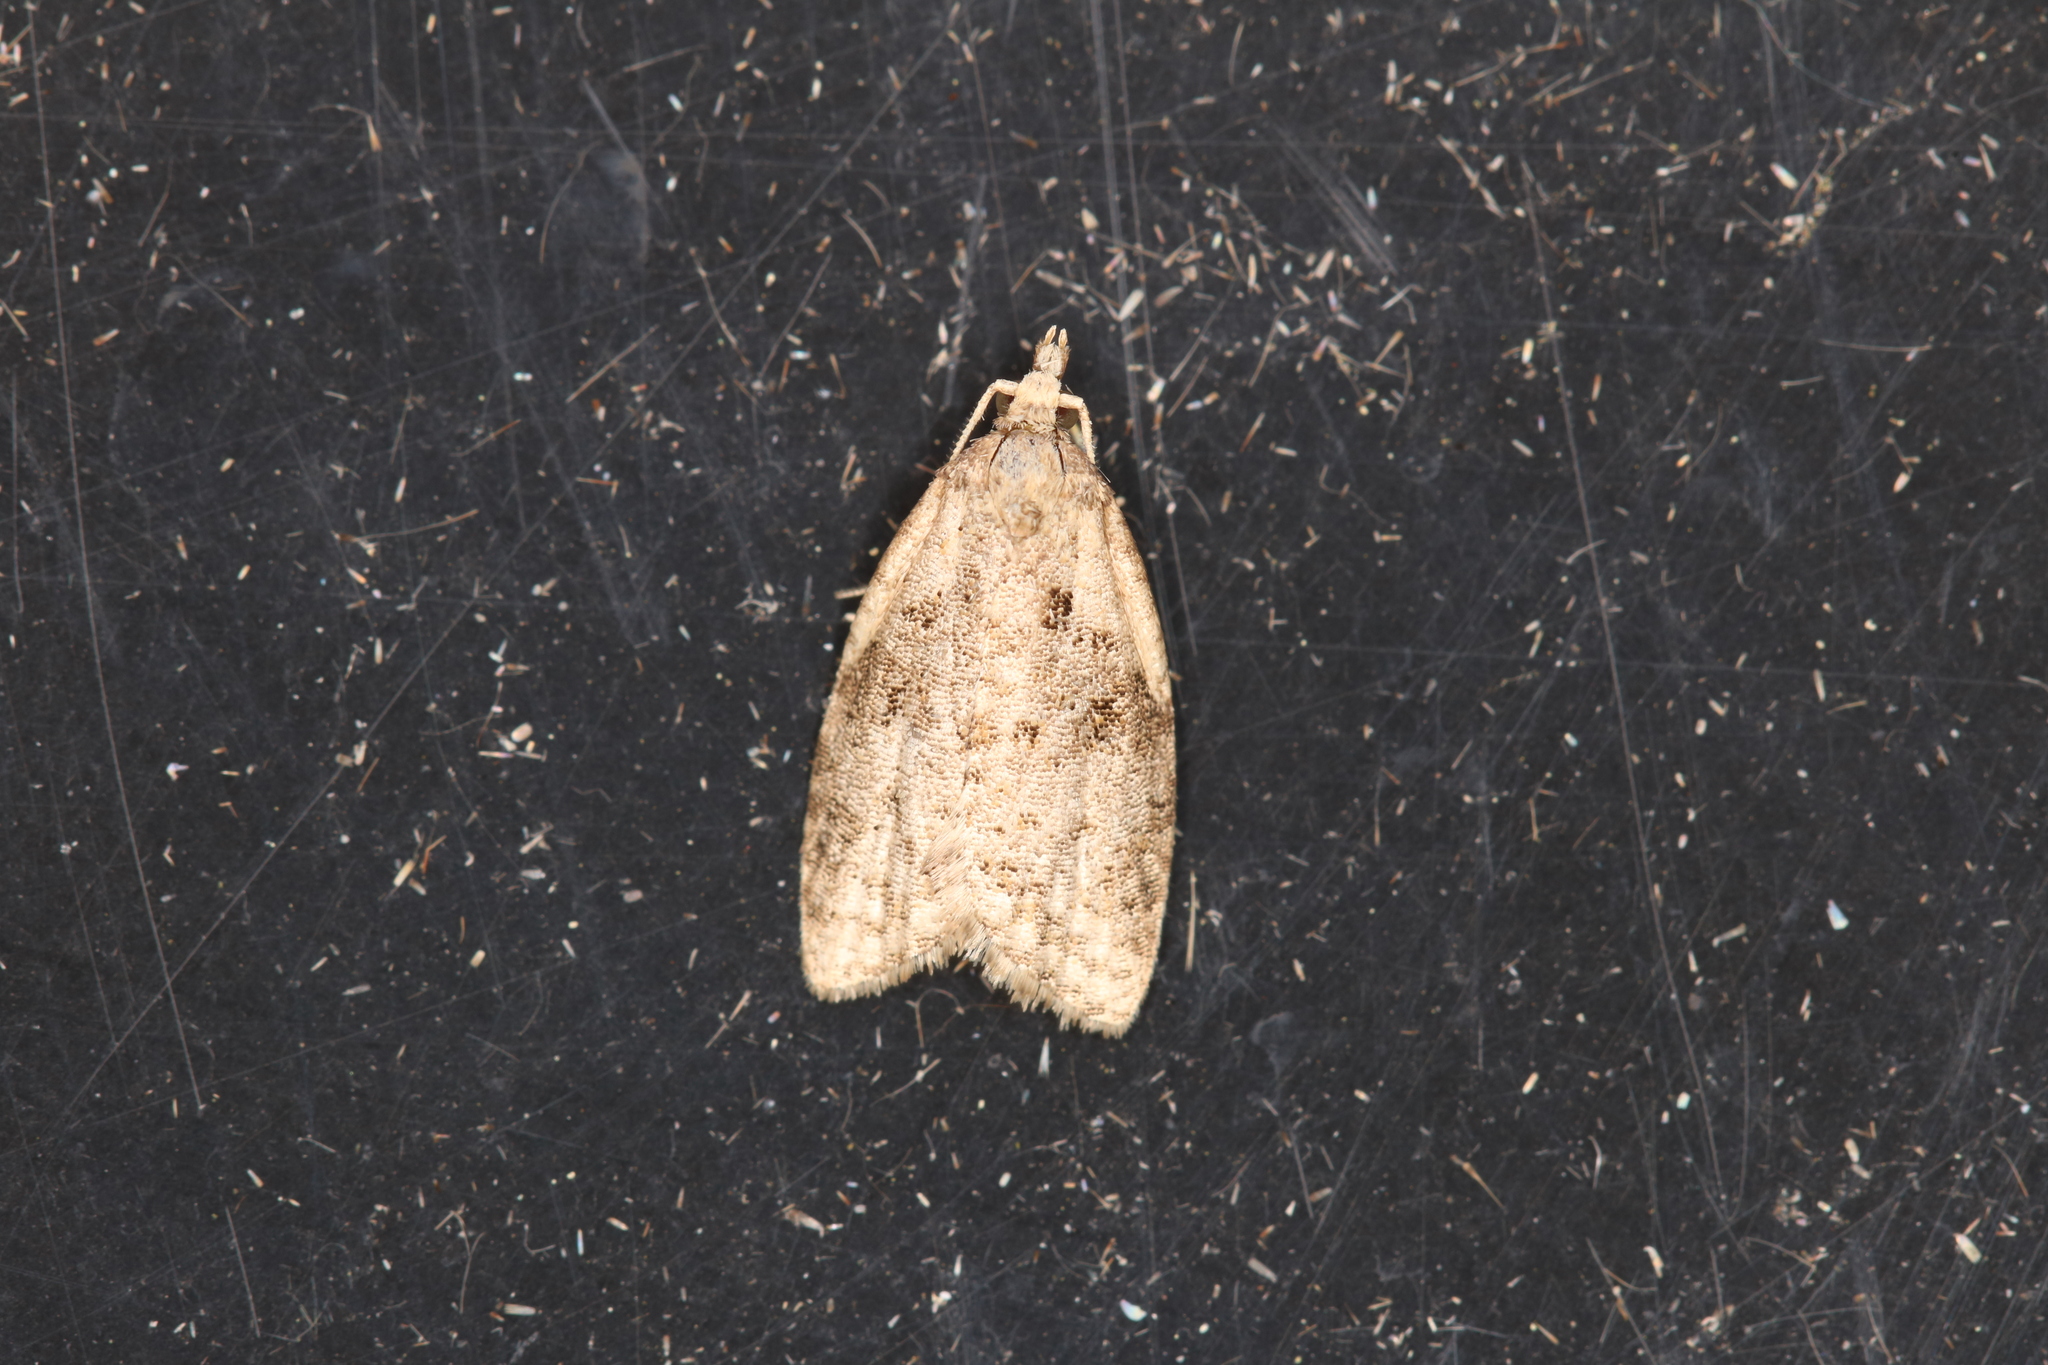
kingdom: Animalia
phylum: Arthropoda
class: Insecta
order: Lepidoptera
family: Tortricidae
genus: Capua
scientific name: Capua vulgana
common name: Common twist
